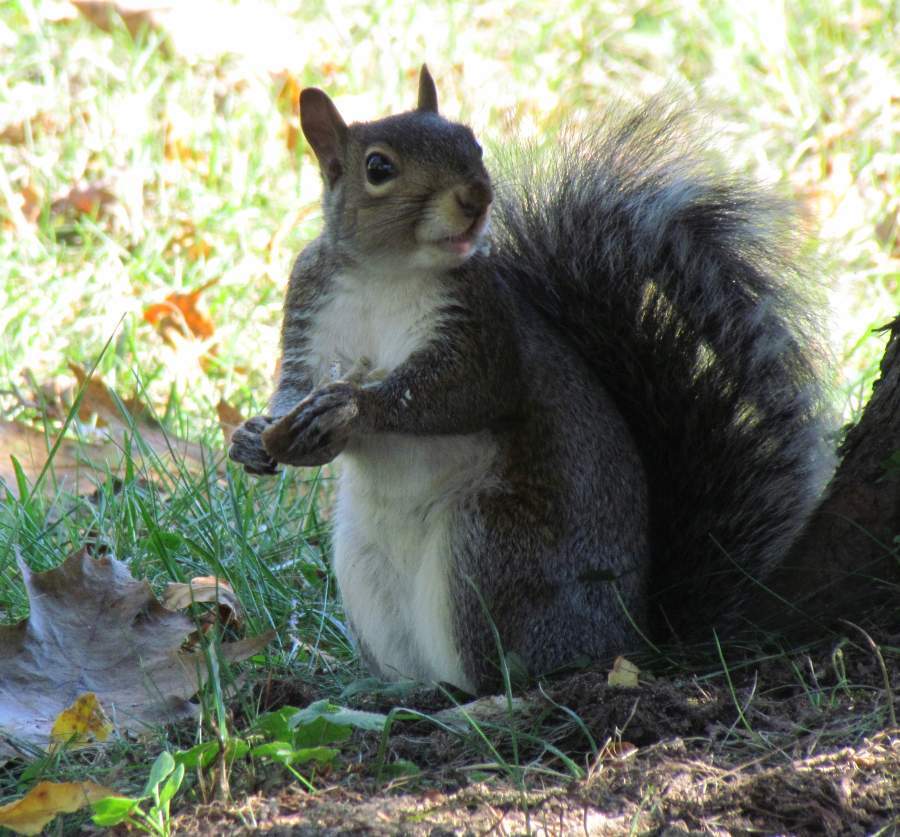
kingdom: Animalia
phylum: Chordata
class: Mammalia
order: Rodentia
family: Sciuridae
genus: Sciurus
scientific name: Sciurus carolinensis
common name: Eastern gray squirrel
